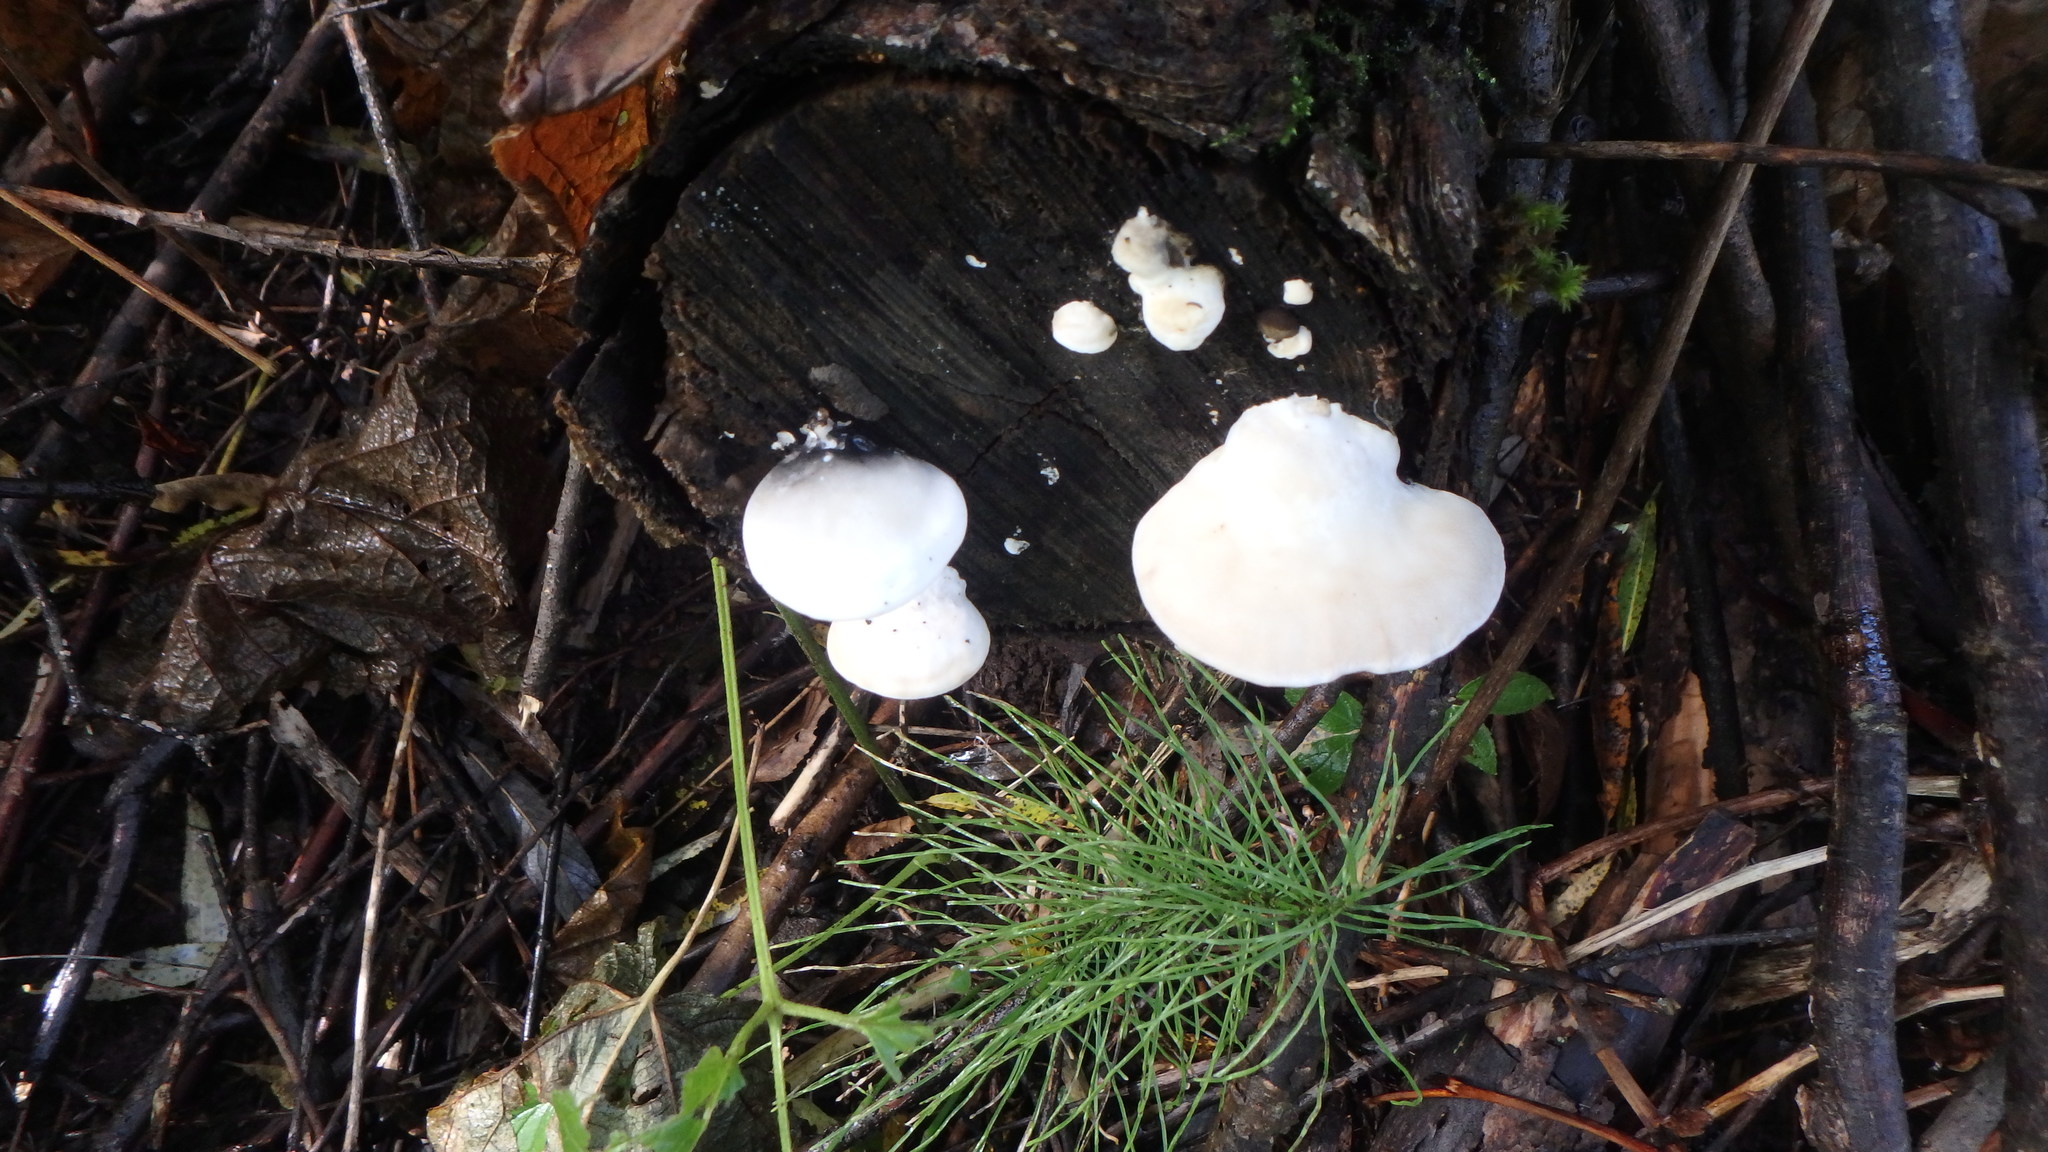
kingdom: Fungi
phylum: Basidiomycota
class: Agaricomycetes
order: Polyporales
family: Meruliaceae
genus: Spongipellis
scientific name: Spongipellis
